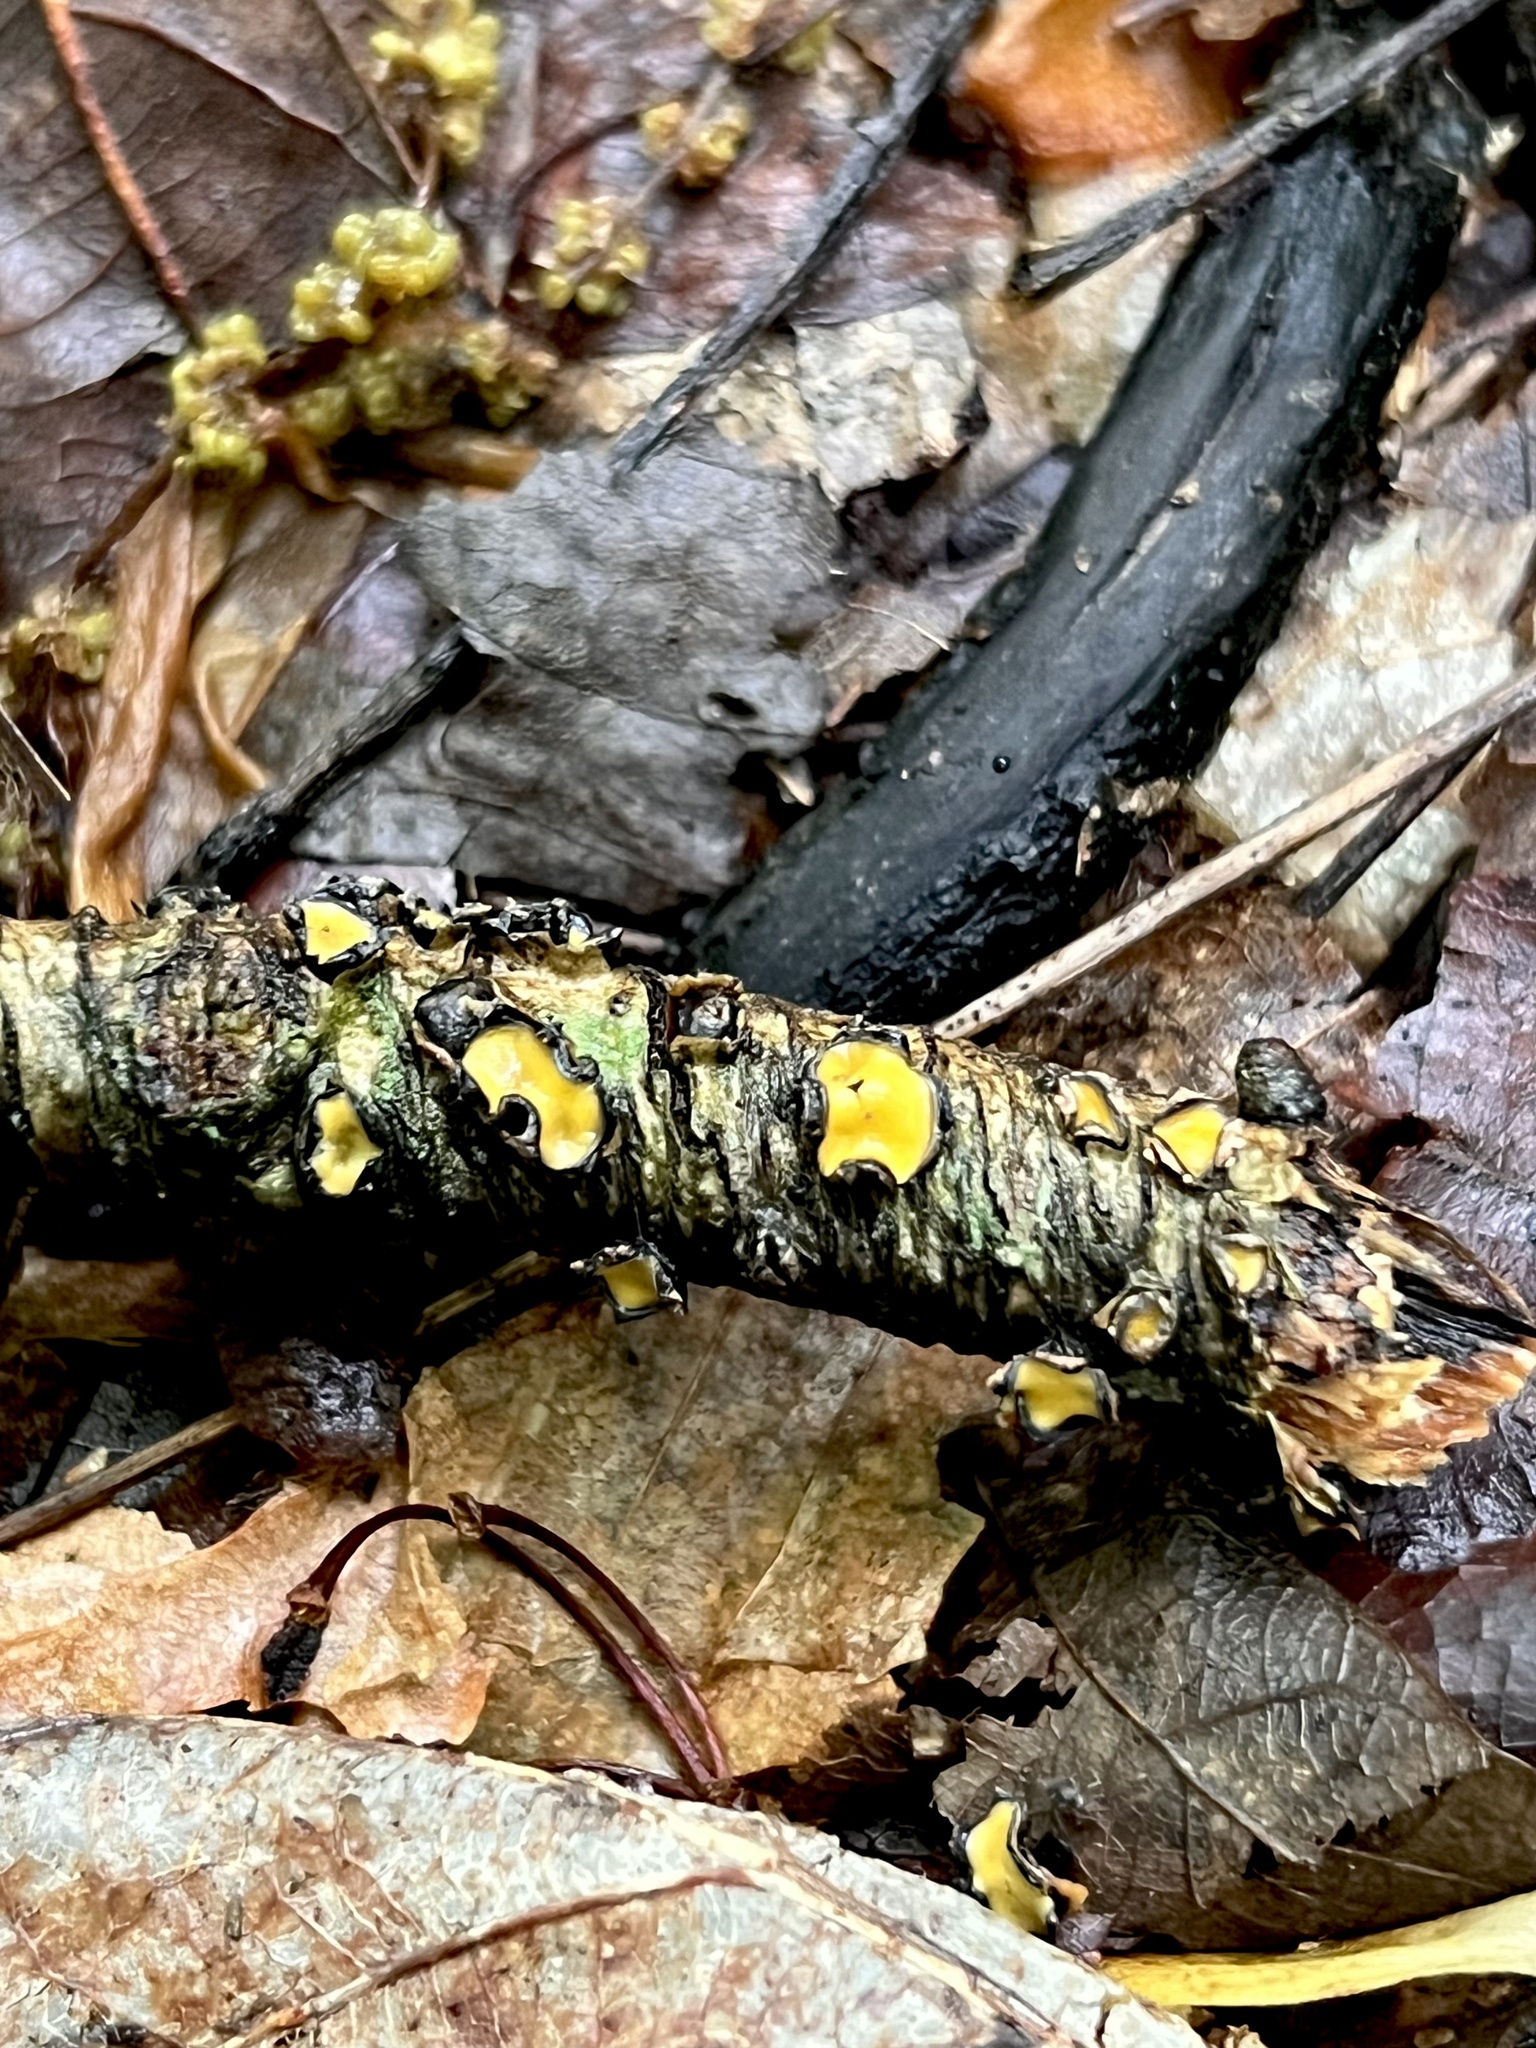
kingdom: Fungi
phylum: Ascomycota
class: Leotiomycetes
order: Rhytismatales
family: Rhytismataceae
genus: Coccomyces
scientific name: Coccomyces triangularis
